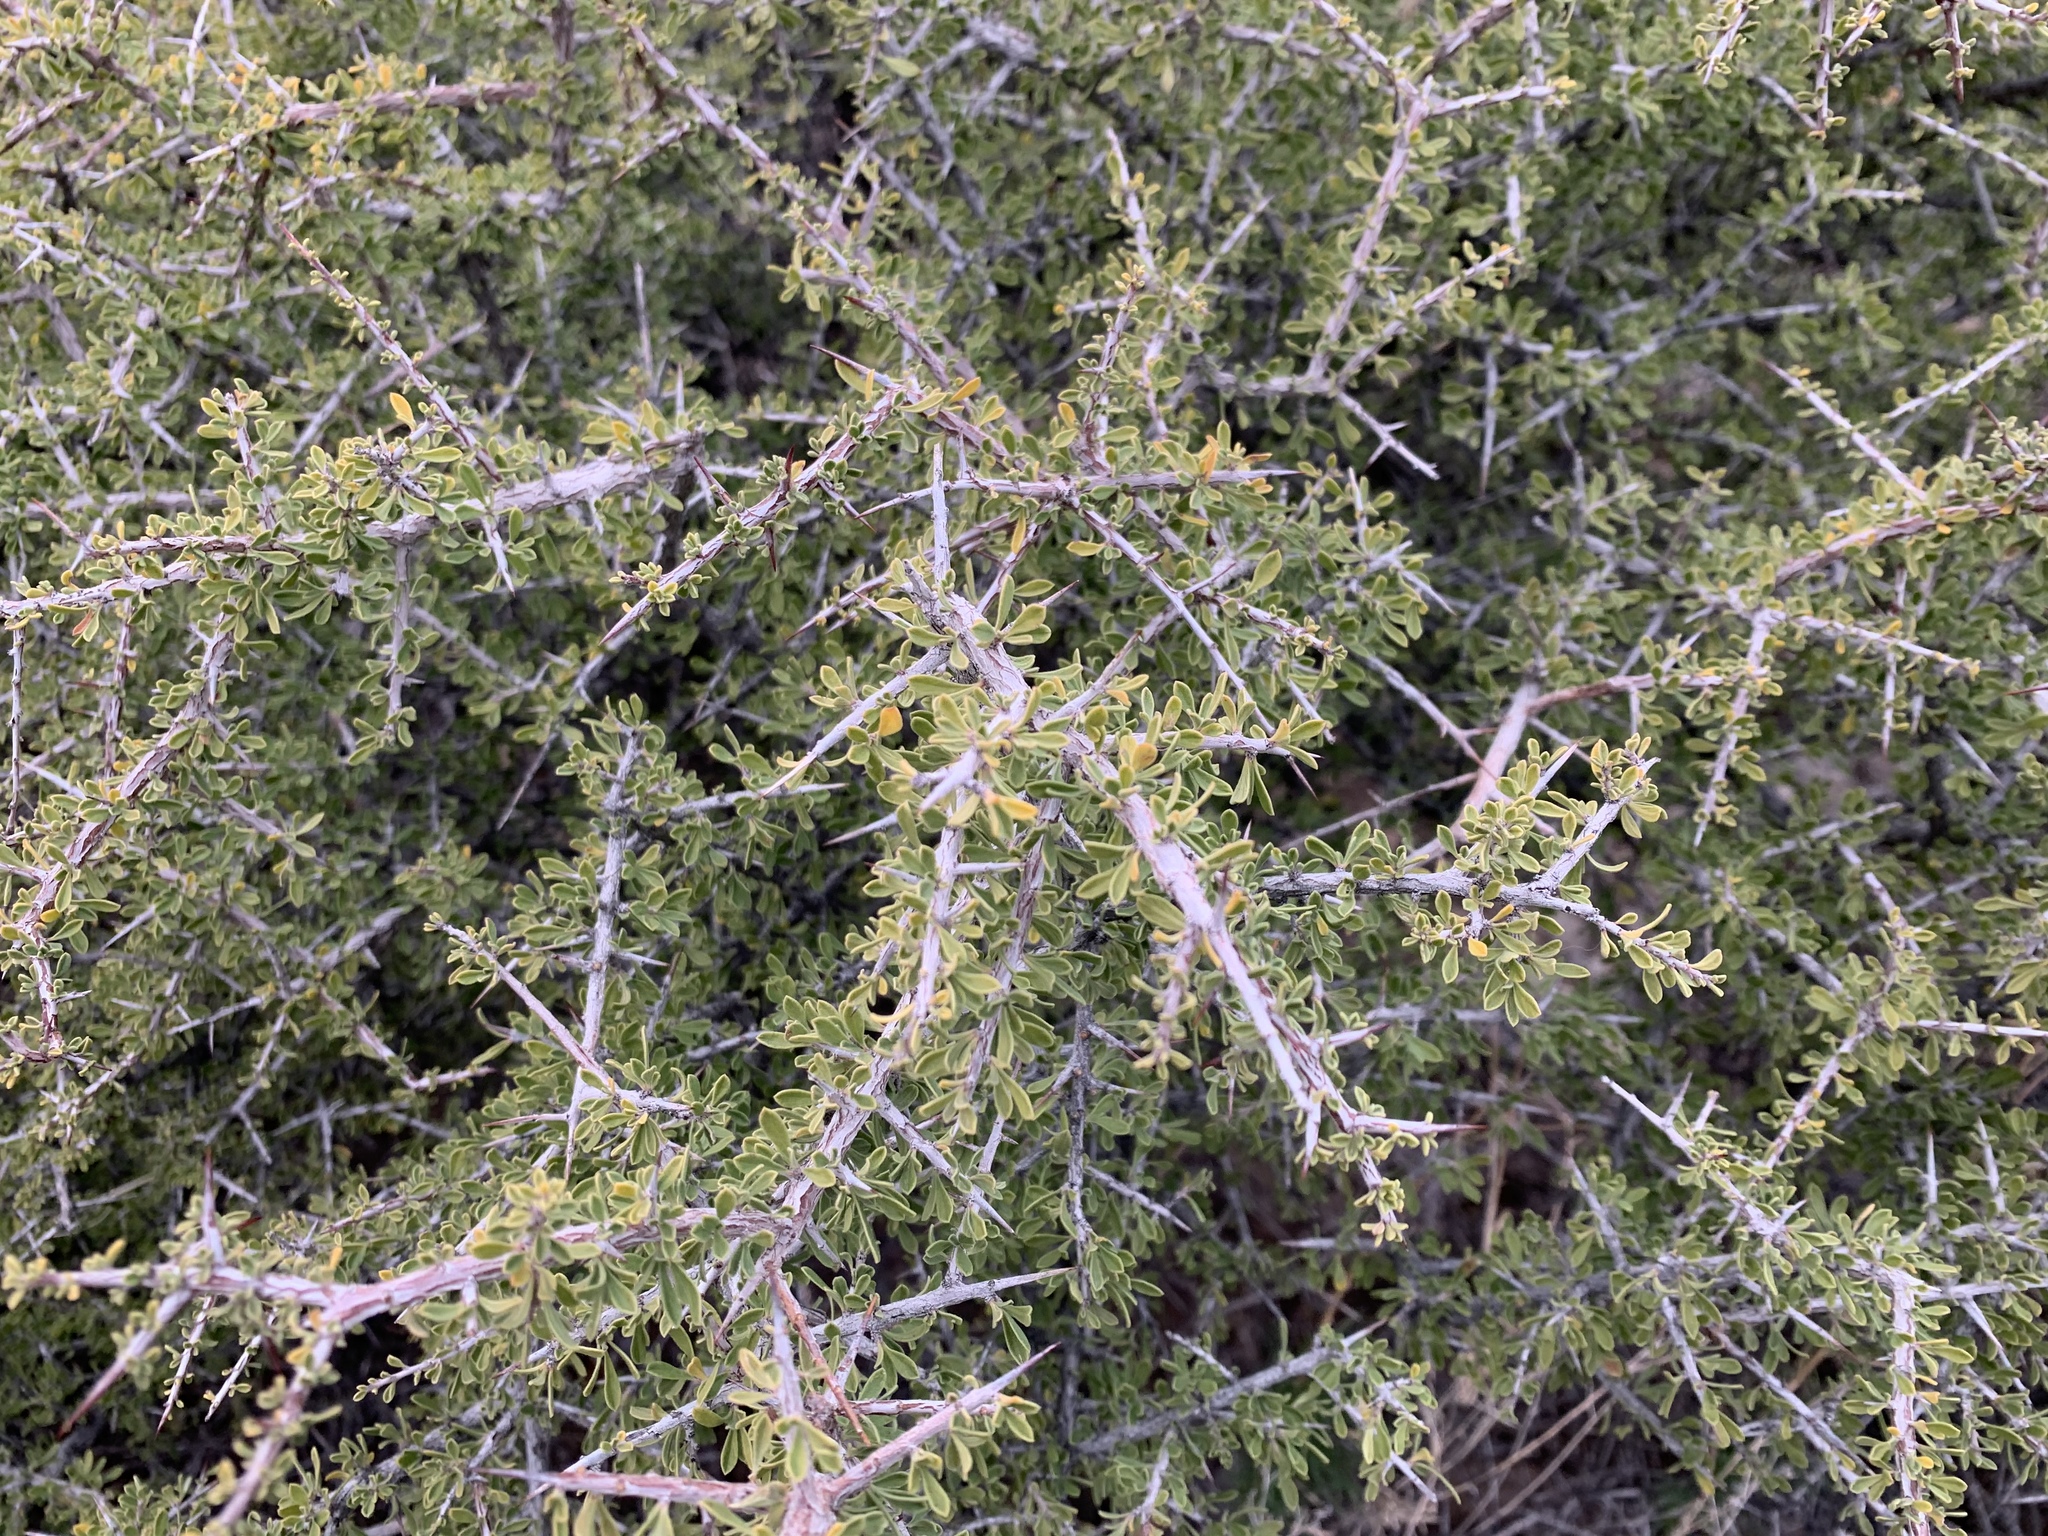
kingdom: Plantae
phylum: Tracheophyta
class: Magnoliopsida
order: Rosales
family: Rhamnaceae
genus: Condalia
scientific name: Condalia warnockii
